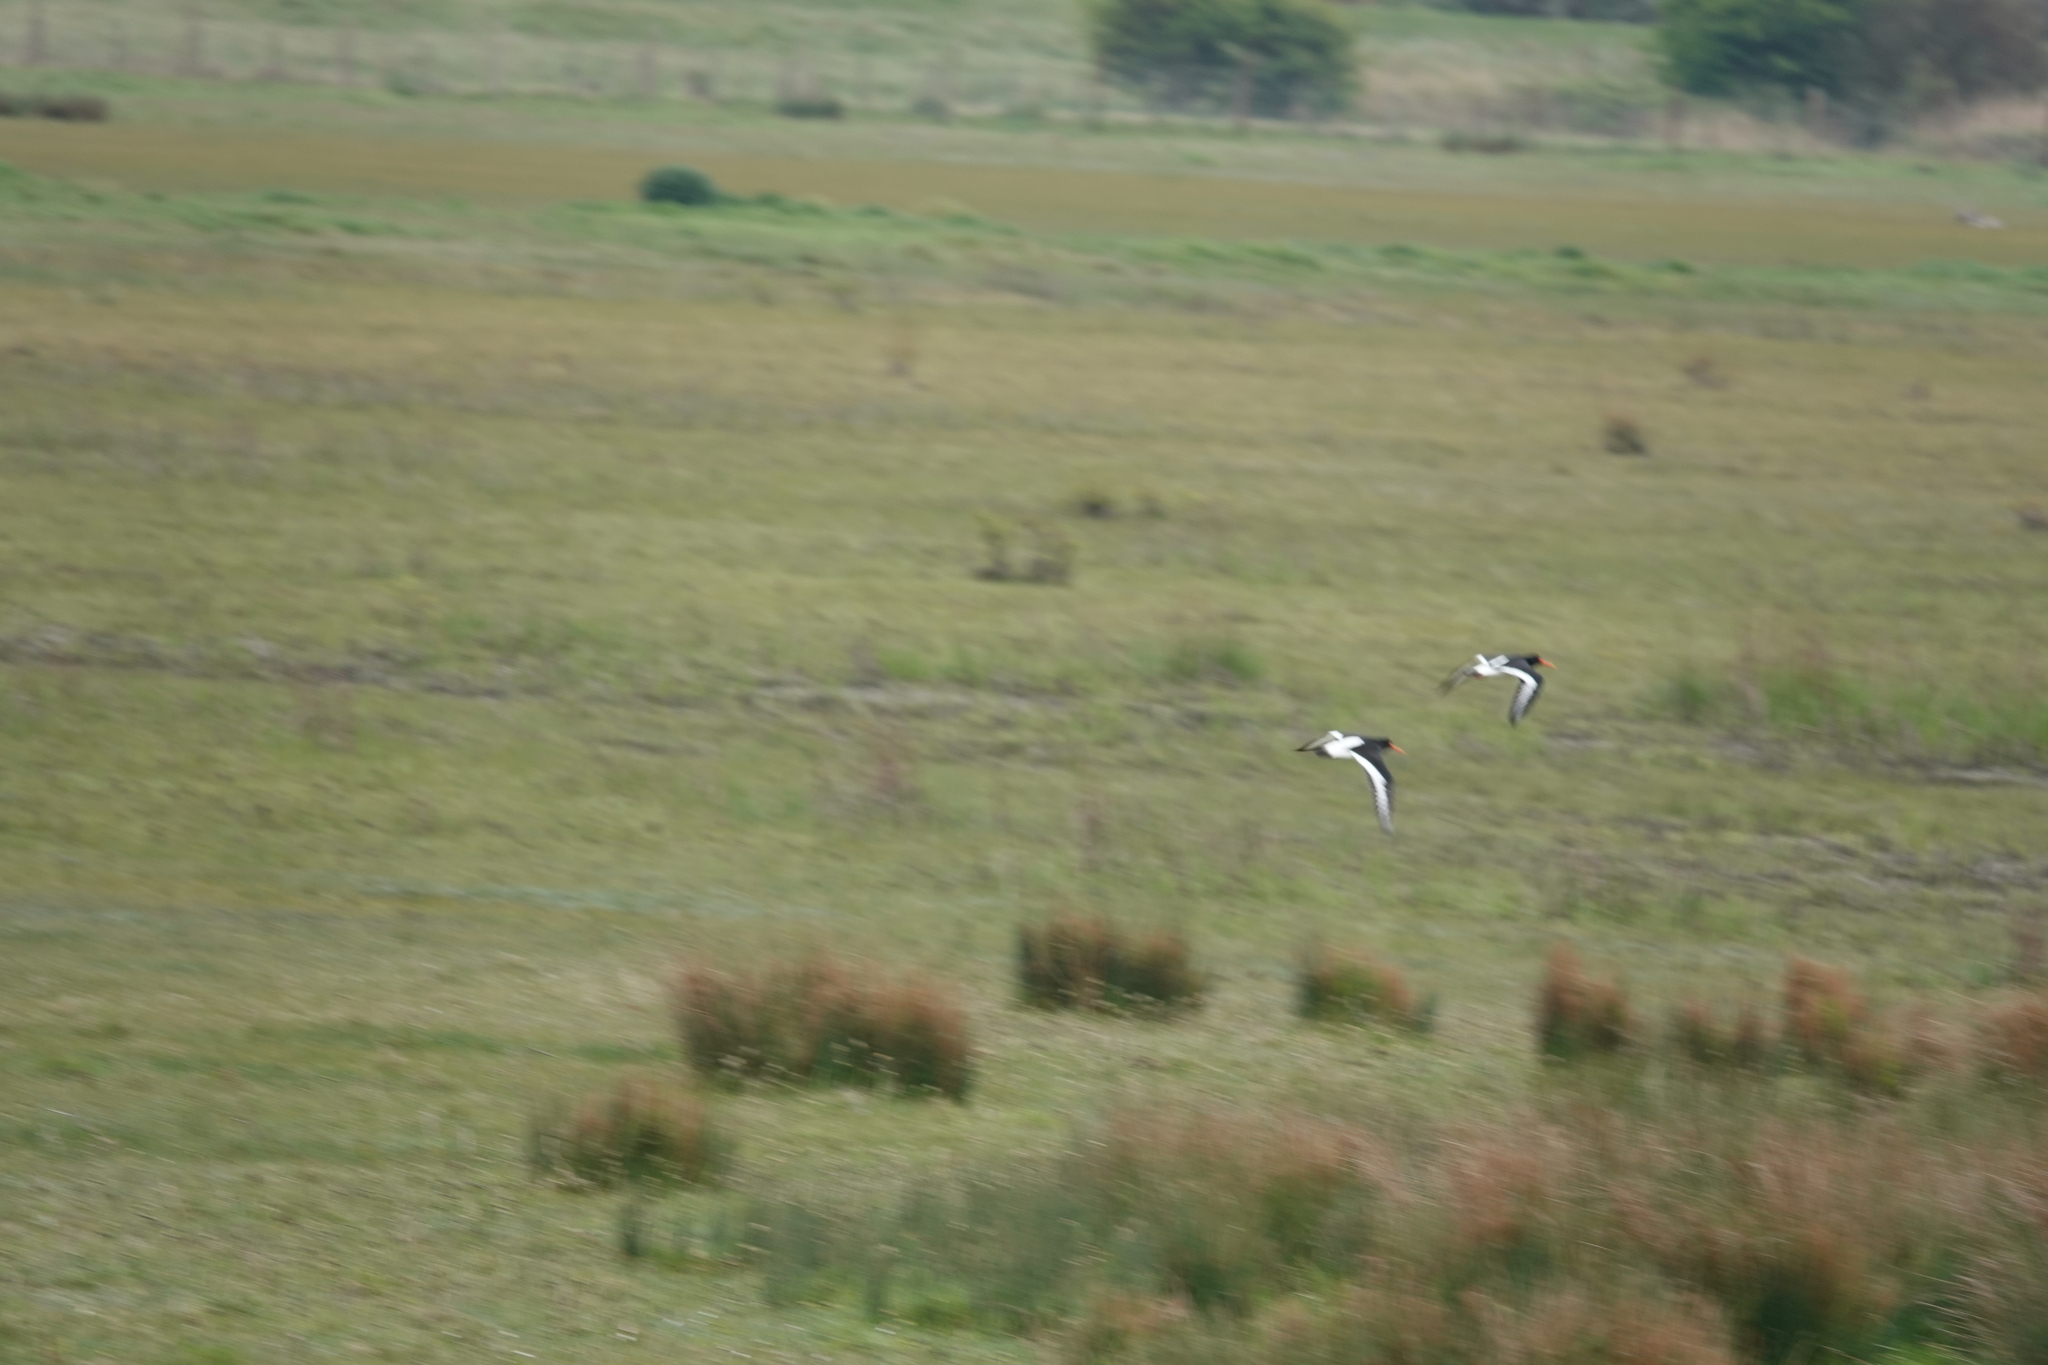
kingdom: Animalia
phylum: Chordata
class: Aves
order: Charadriiformes
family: Haematopodidae
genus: Haematopus
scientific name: Haematopus ostralegus
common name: Eurasian oystercatcher
